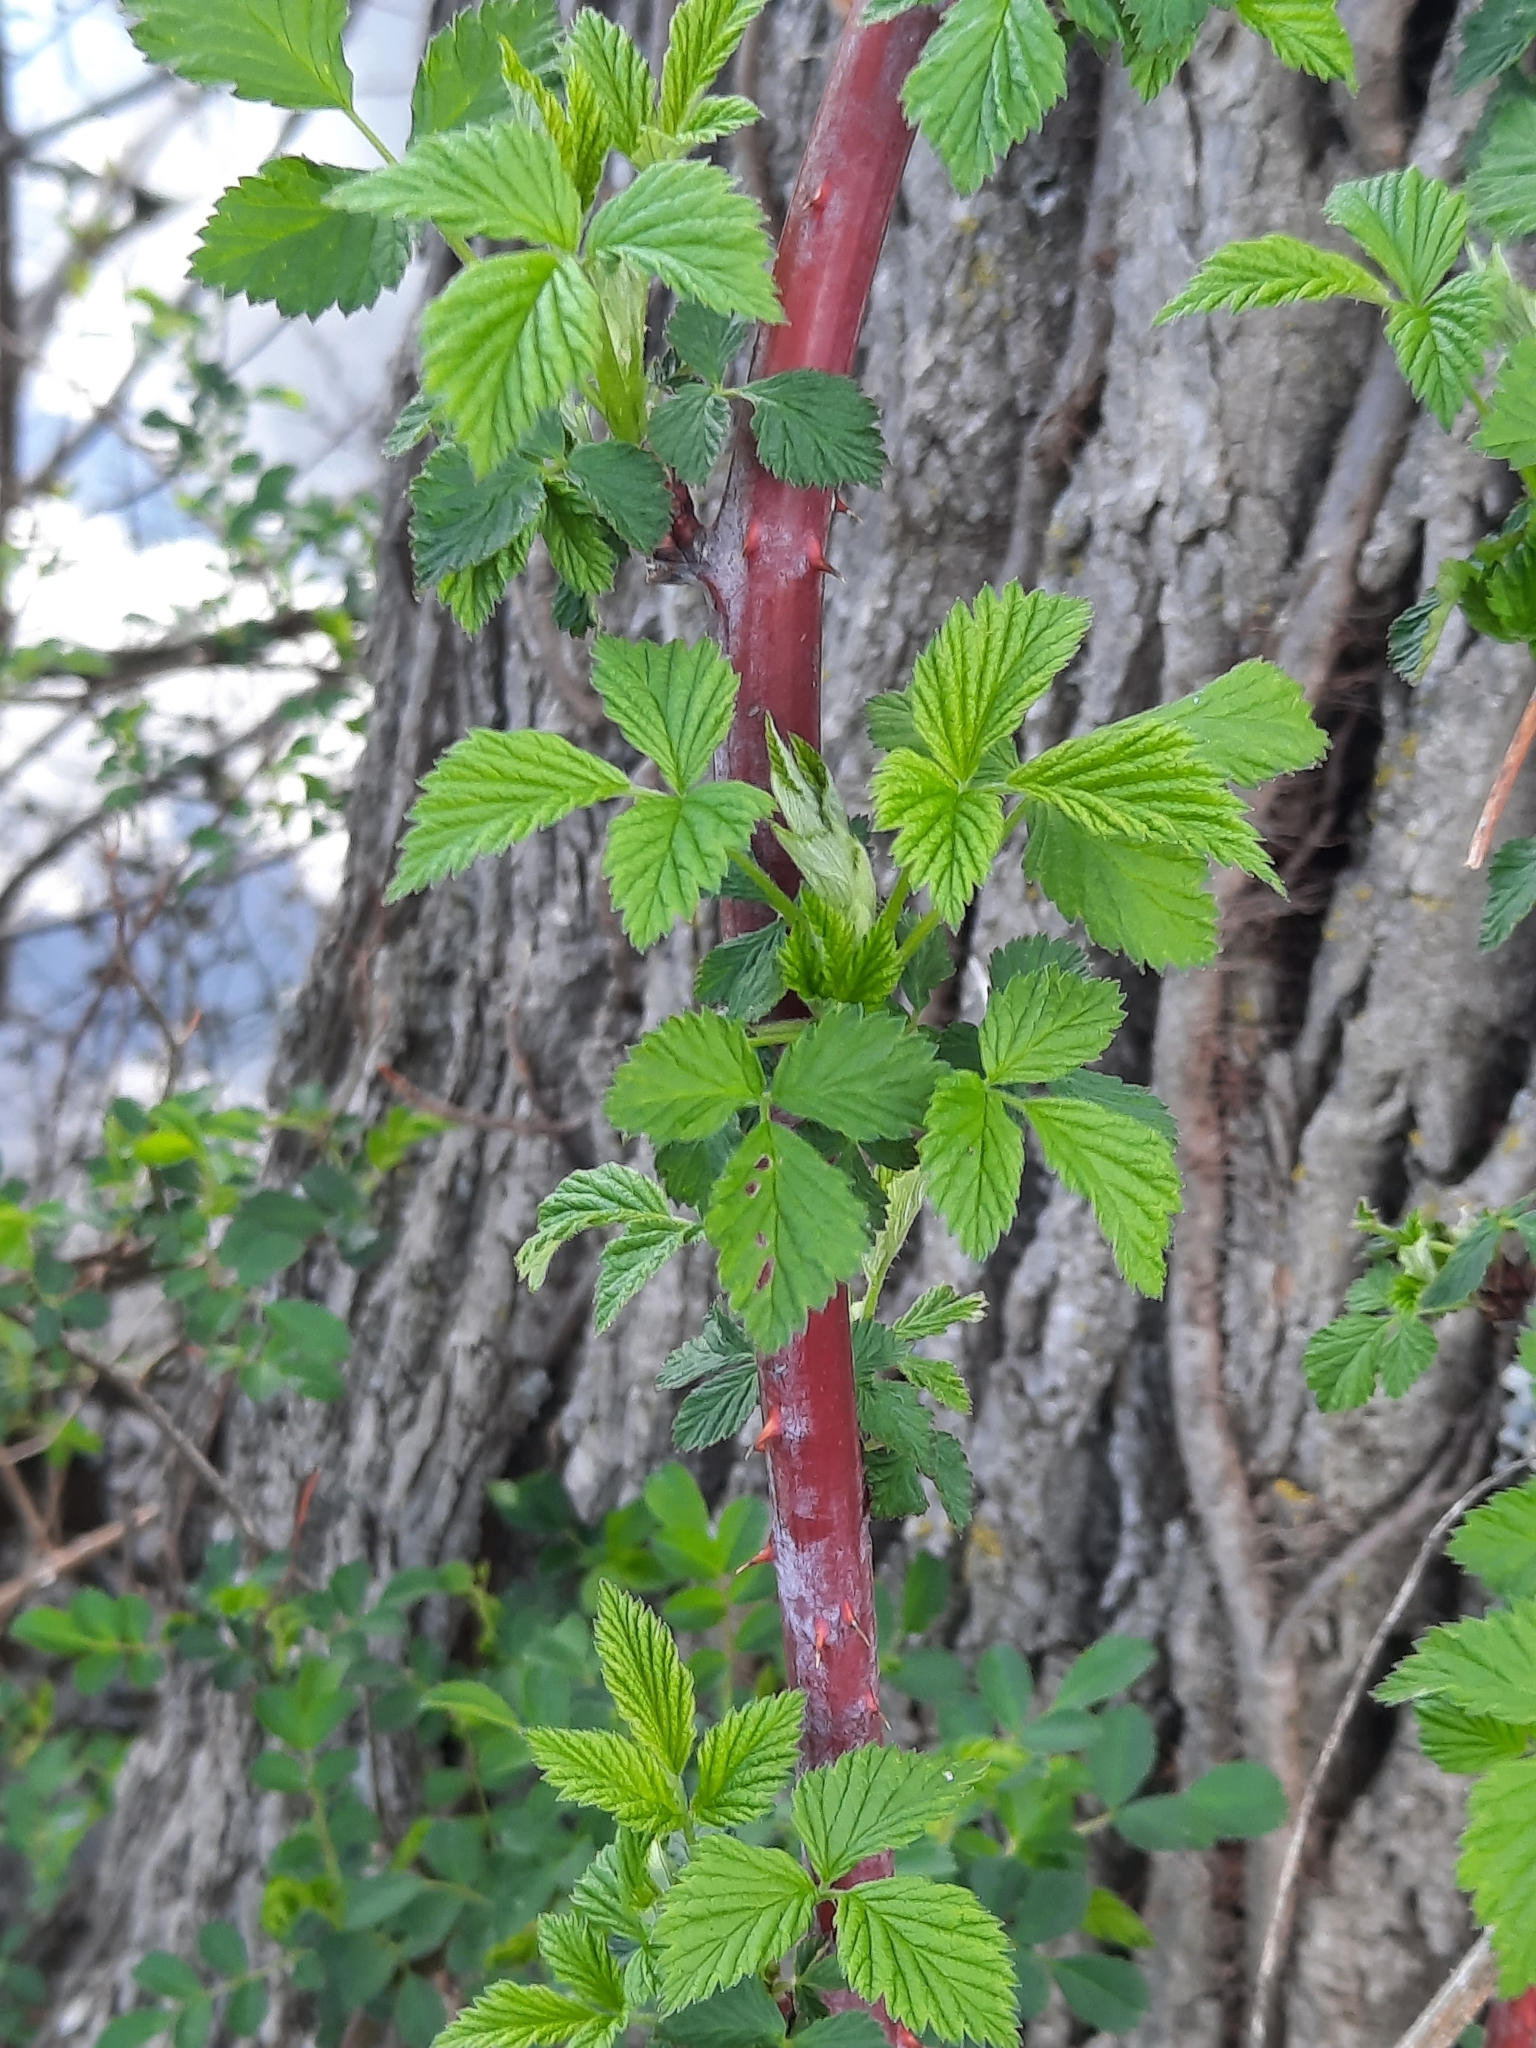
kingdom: Plantae
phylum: Tracheophyta
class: Magnoliopsida
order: Rosales
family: Rosaceae
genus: Rubus
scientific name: Rubus occidentalis
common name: Black raspberry
